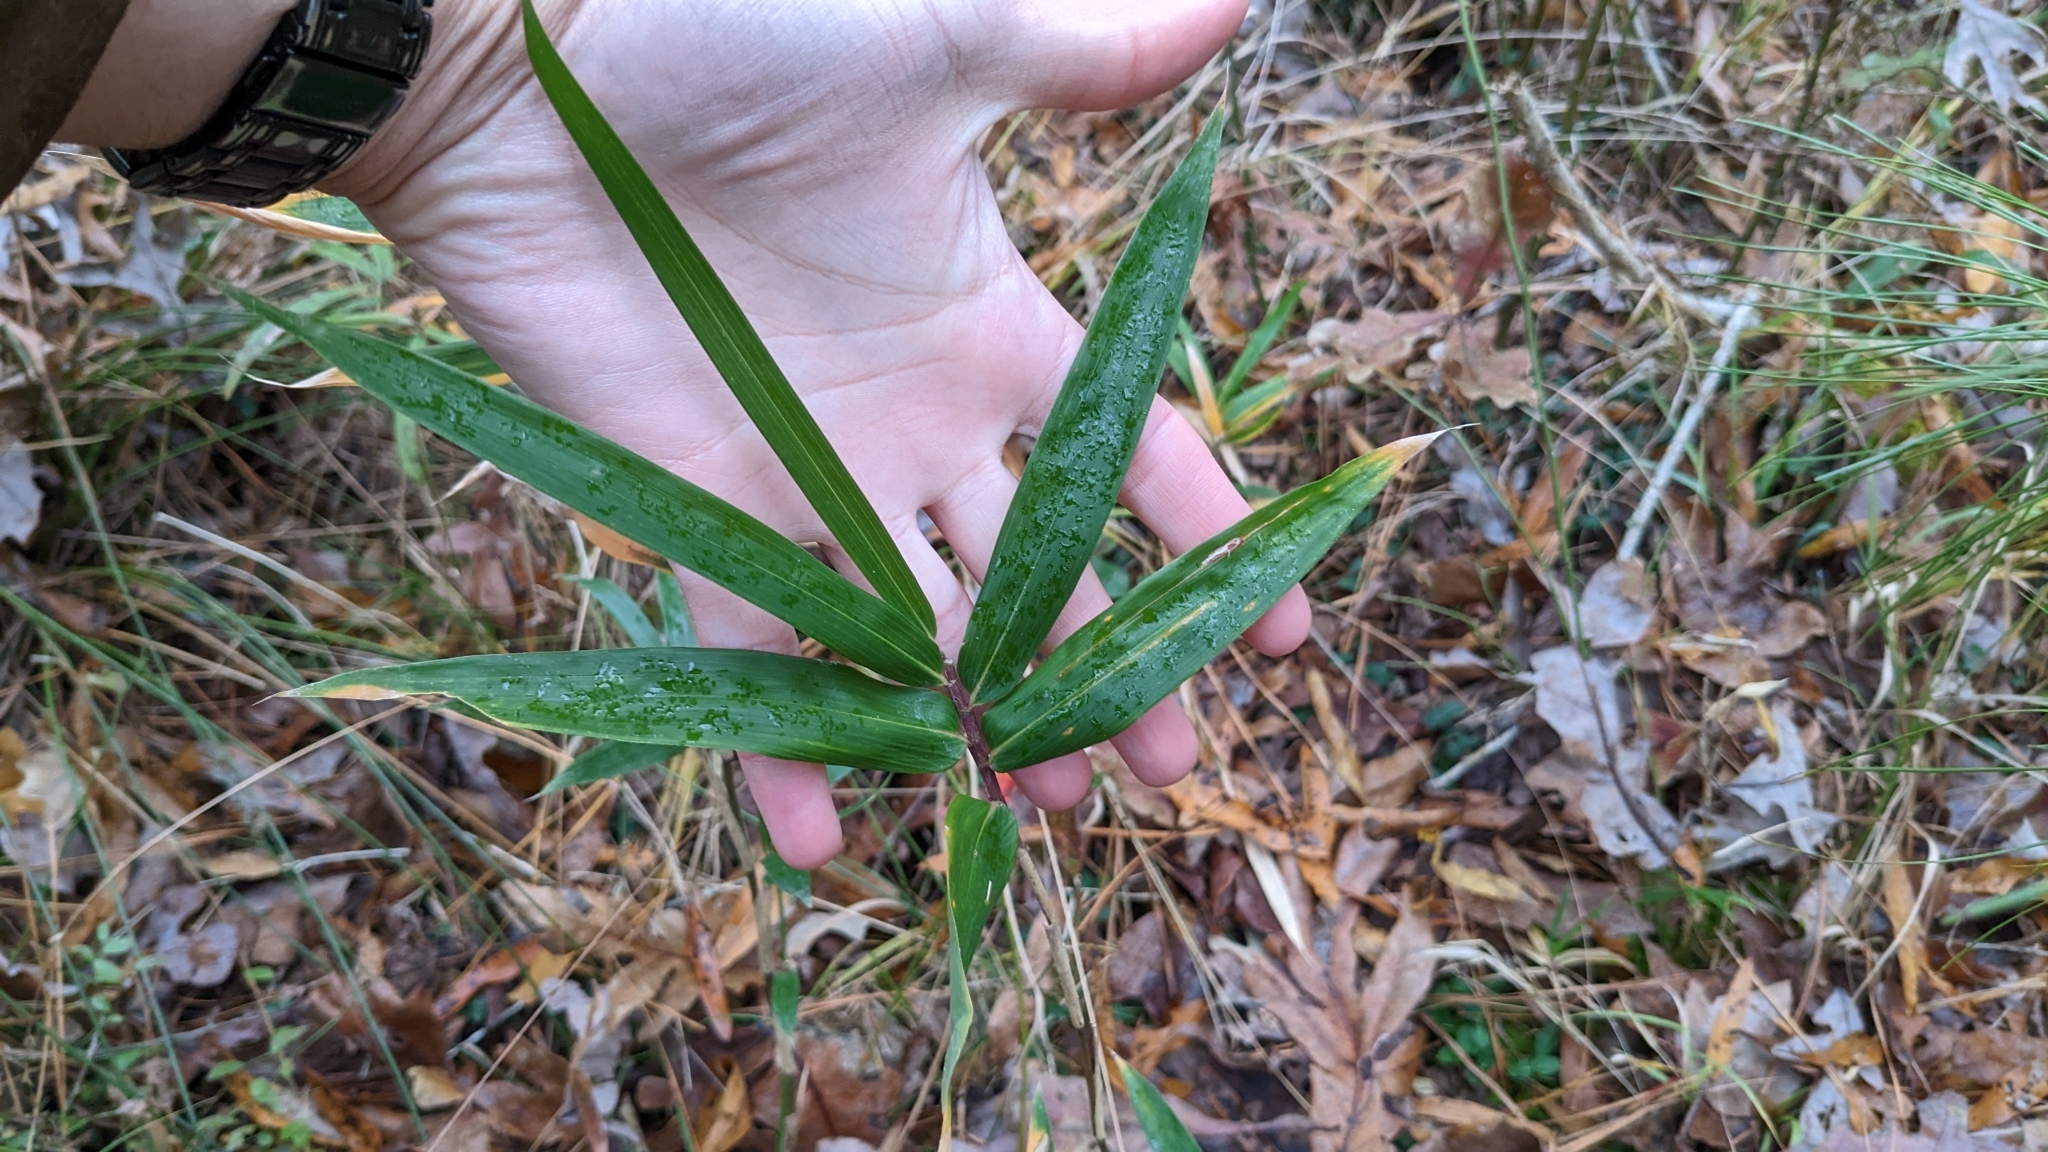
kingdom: Plantae
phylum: Tracheophyta
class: Liliopsida
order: Poales
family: Poaceae
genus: Arundinaria
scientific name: Arundinaria gigantea
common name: Giant cane
